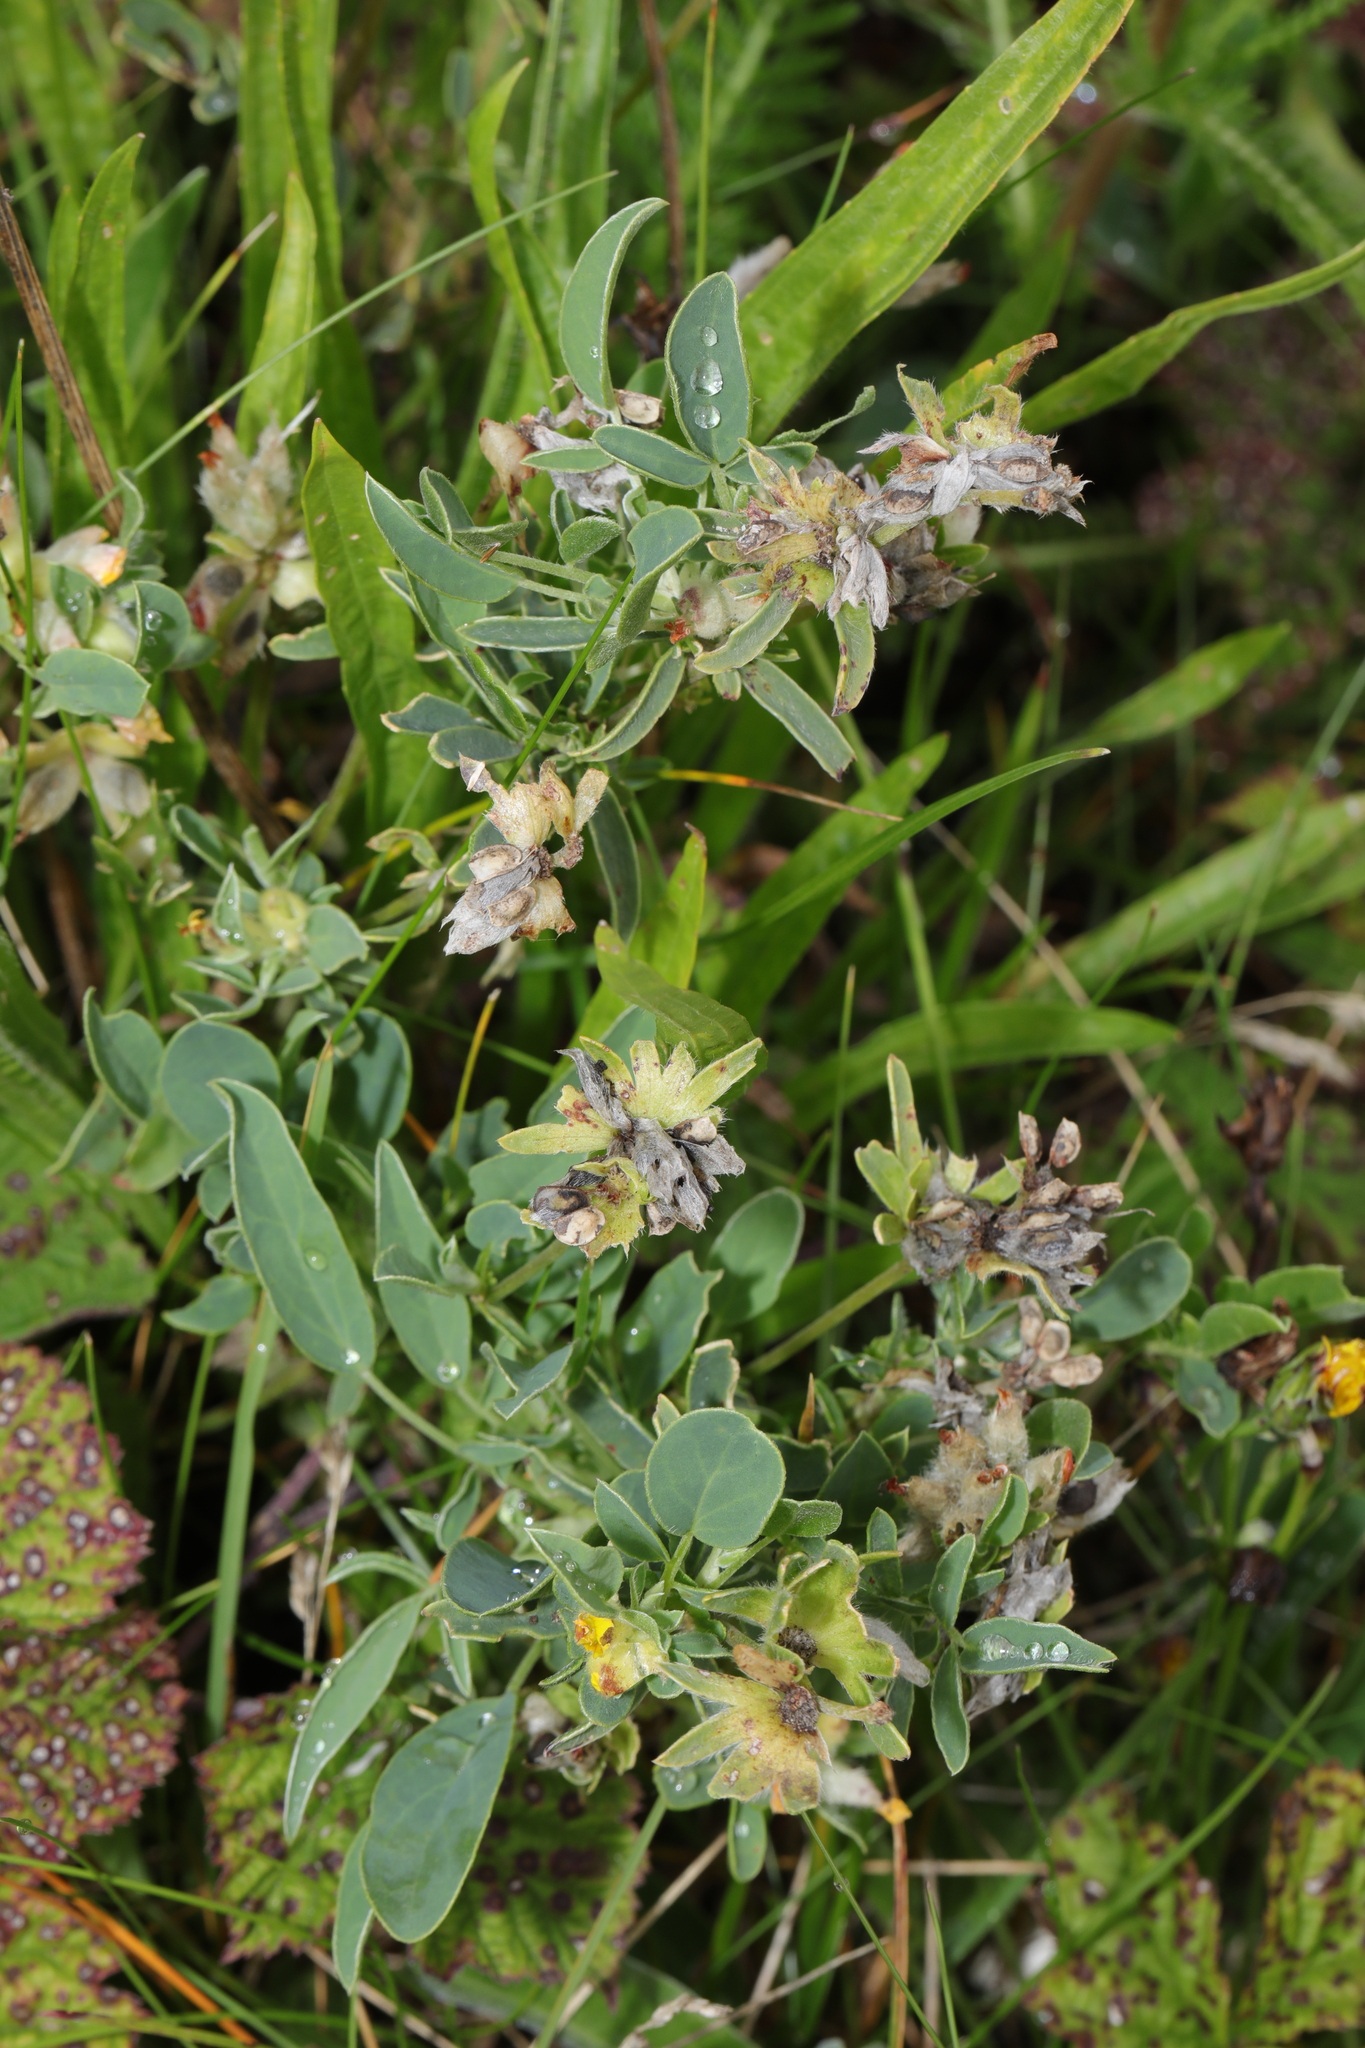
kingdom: Plantae
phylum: Tracheophyta
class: Magnoliopsida
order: Fabales
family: Fabaceae
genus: Anthyllis
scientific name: Anthyllis vulneraria
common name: Kidney vetch
